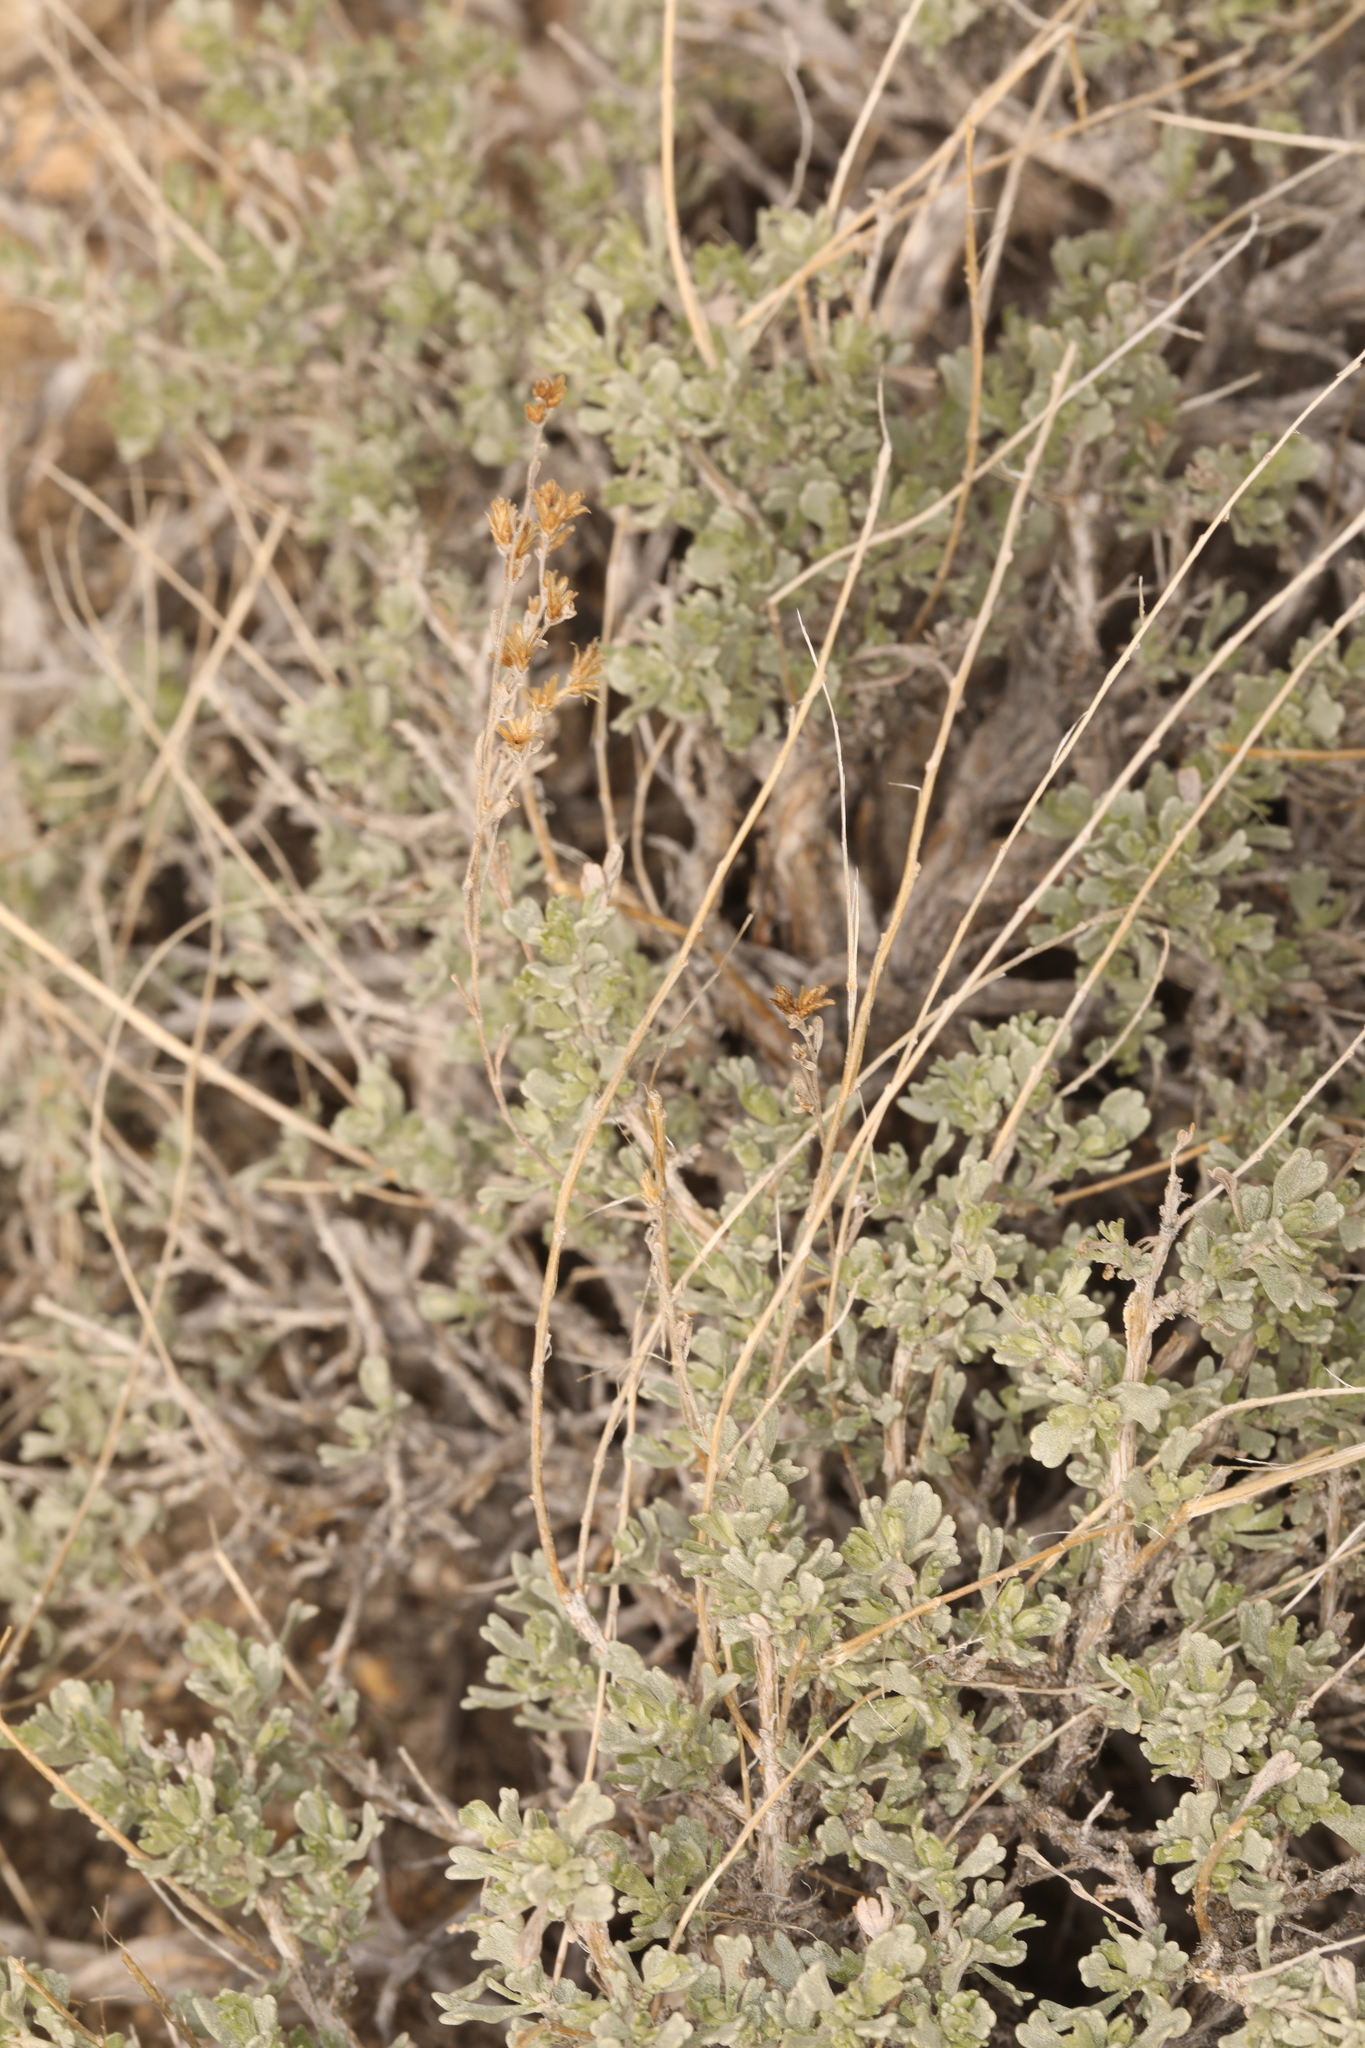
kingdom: Plantae
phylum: Tracheophyta
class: Magnoliopsida
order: Asterales
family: Asteraceae
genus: Artemisia
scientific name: Artemisia nova
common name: Black-sage
